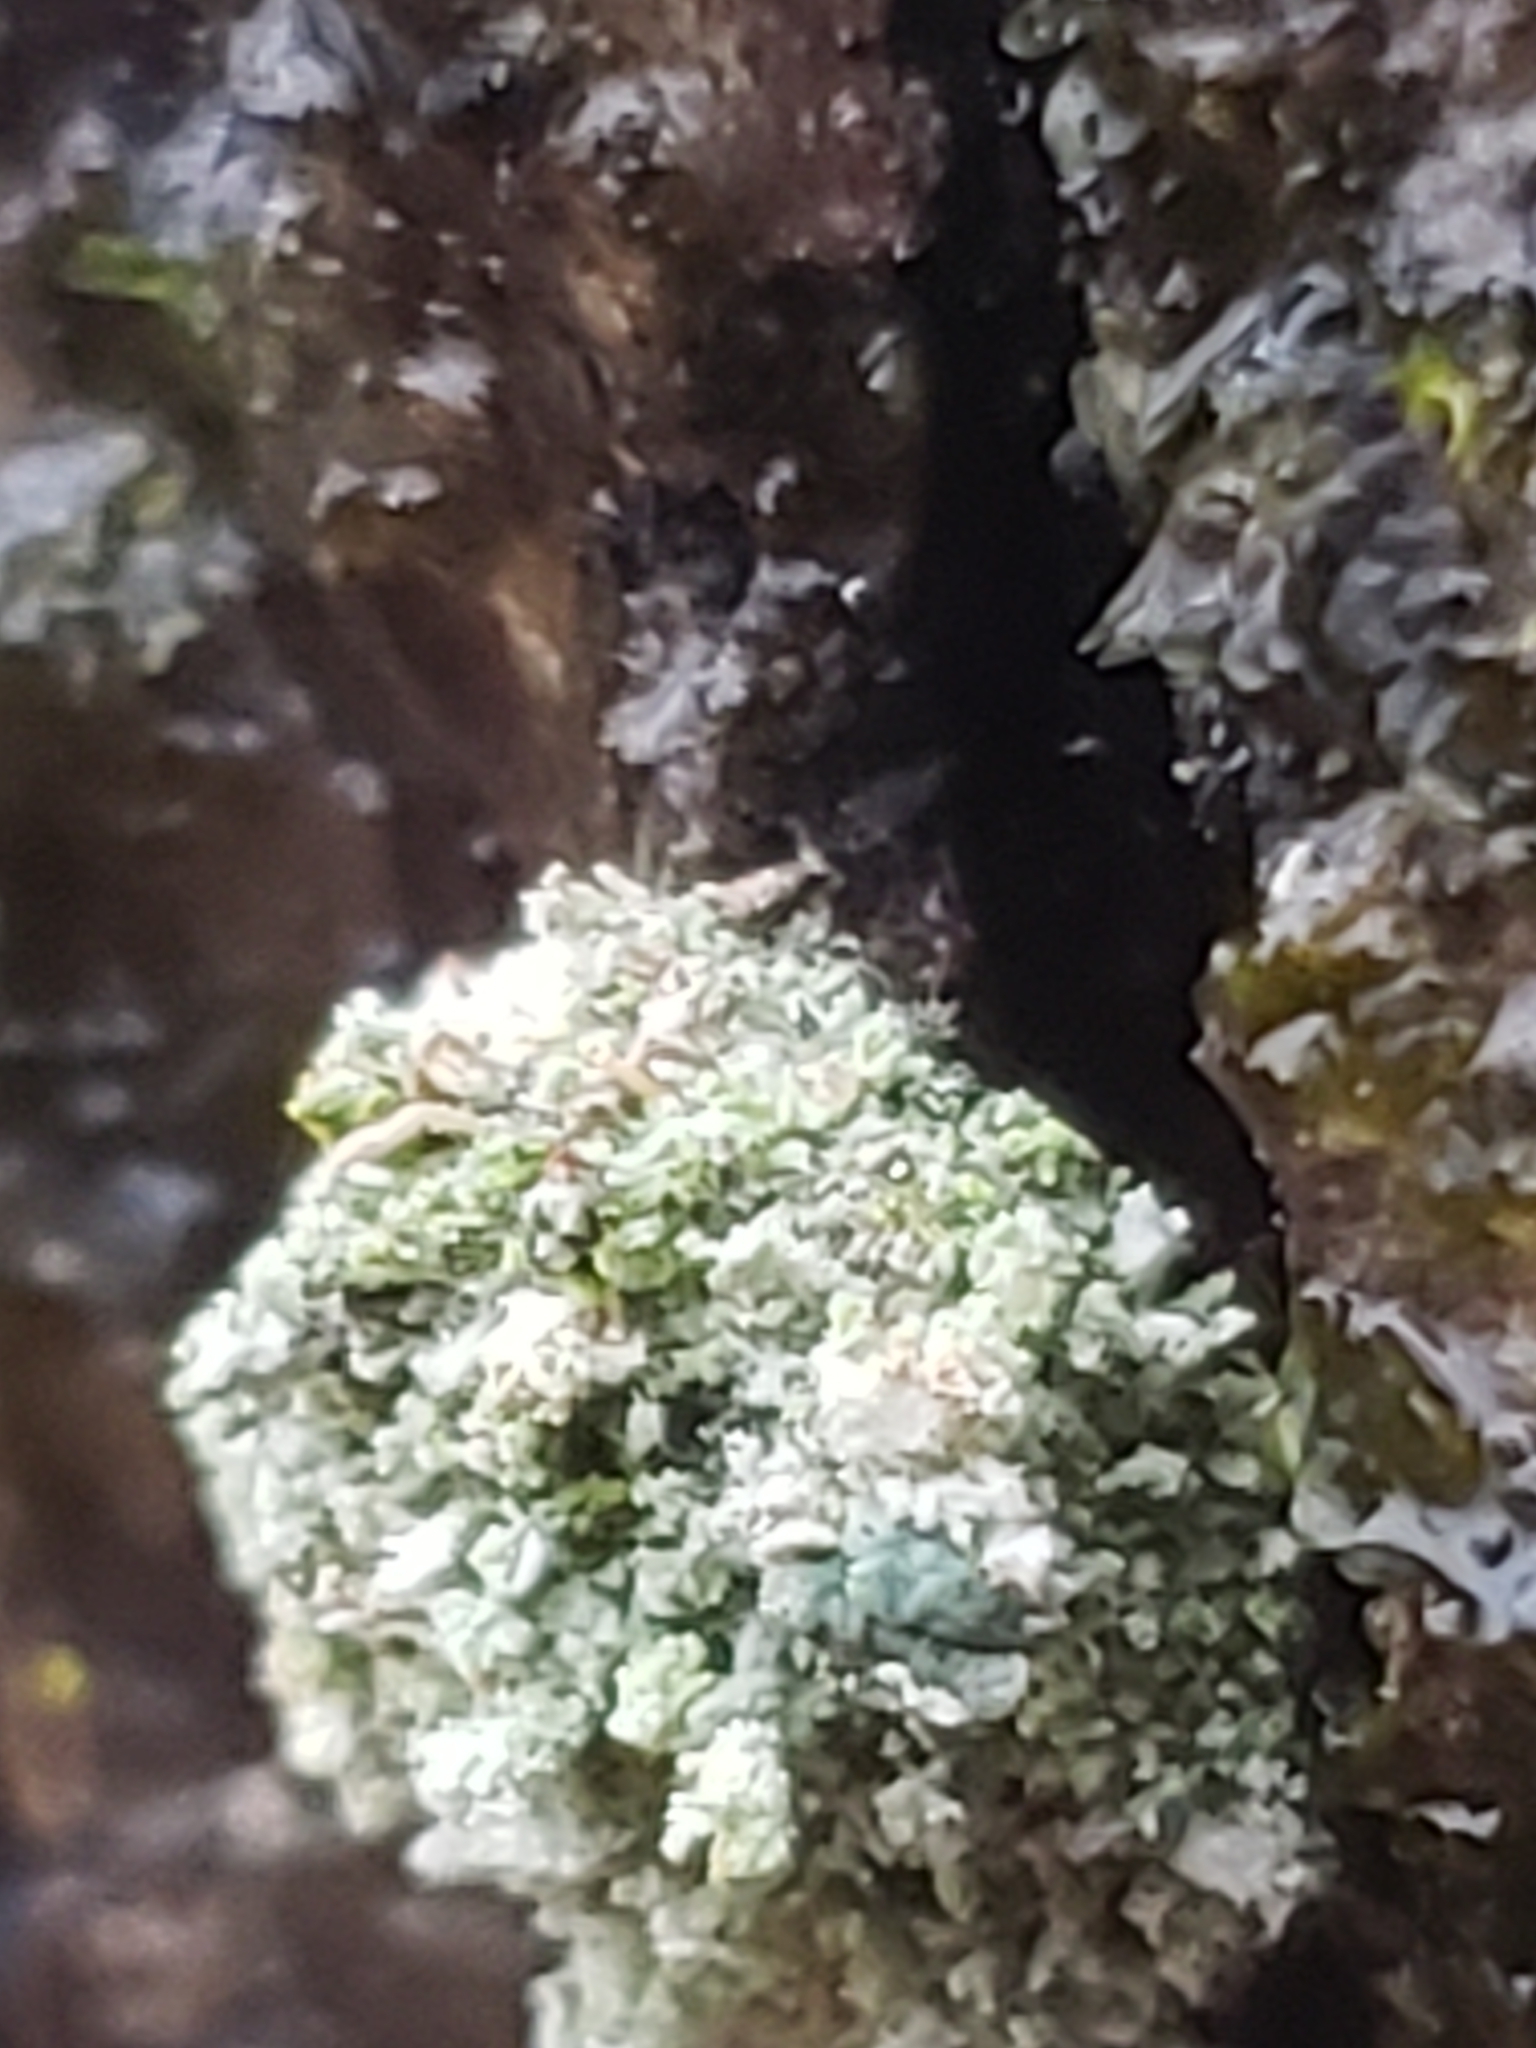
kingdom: Animalia
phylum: Arthropoda
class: Insecta
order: Neuroptera
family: Chrysopidae
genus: Leucochrysa
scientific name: Leucochrysa pavida
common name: Lichen-carrying green lacewing
